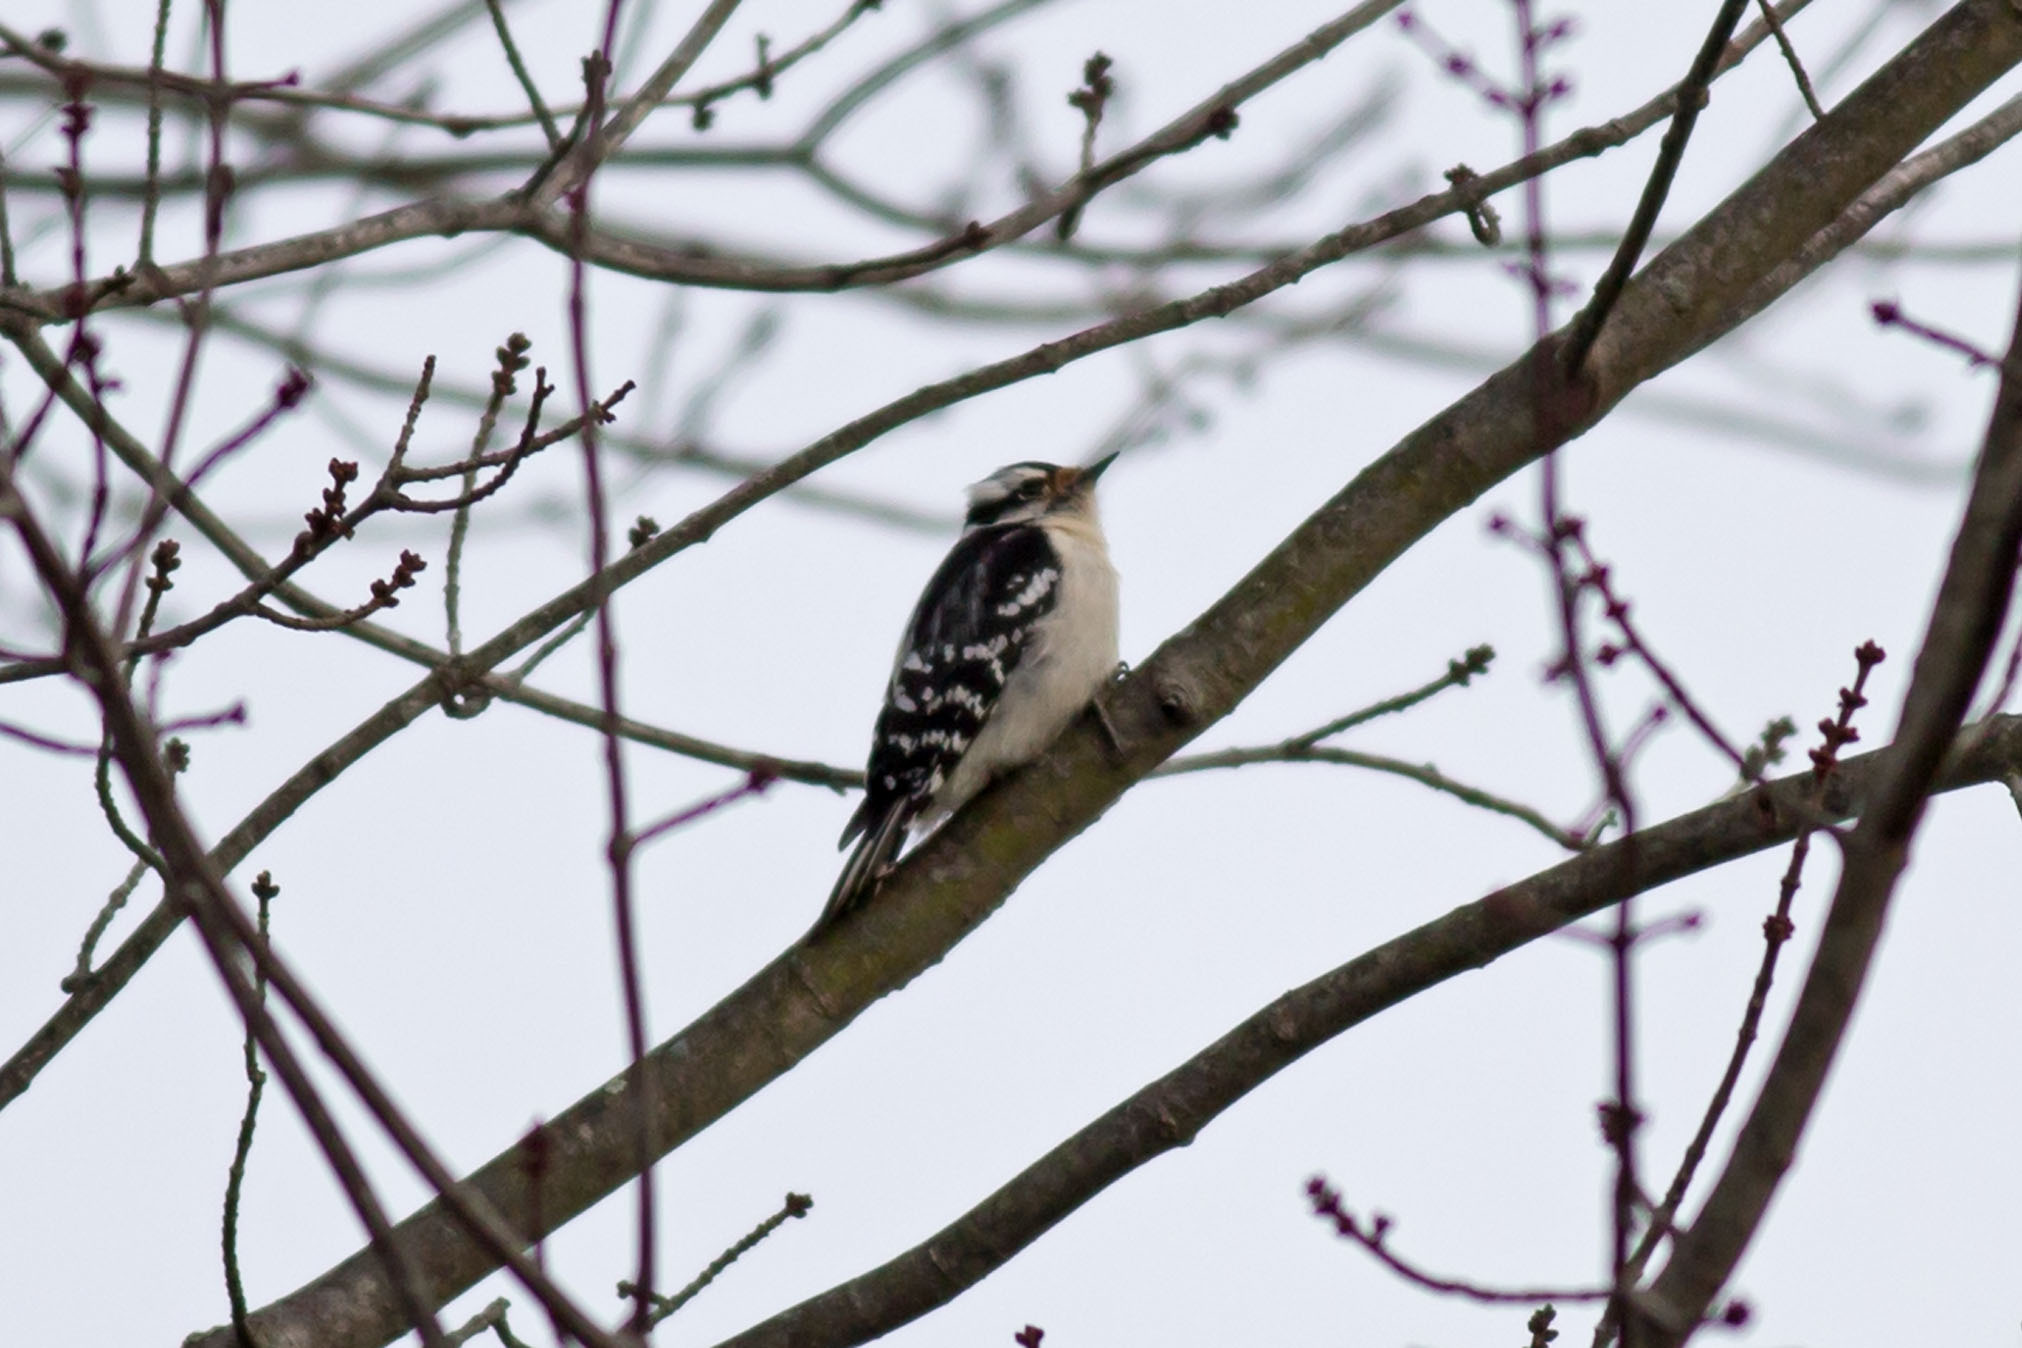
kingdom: Animalia
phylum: Chordata
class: Aves
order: Piciformes
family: Picidae
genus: Dryobates
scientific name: Dryobates pubescens
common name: Downy woodpecker
